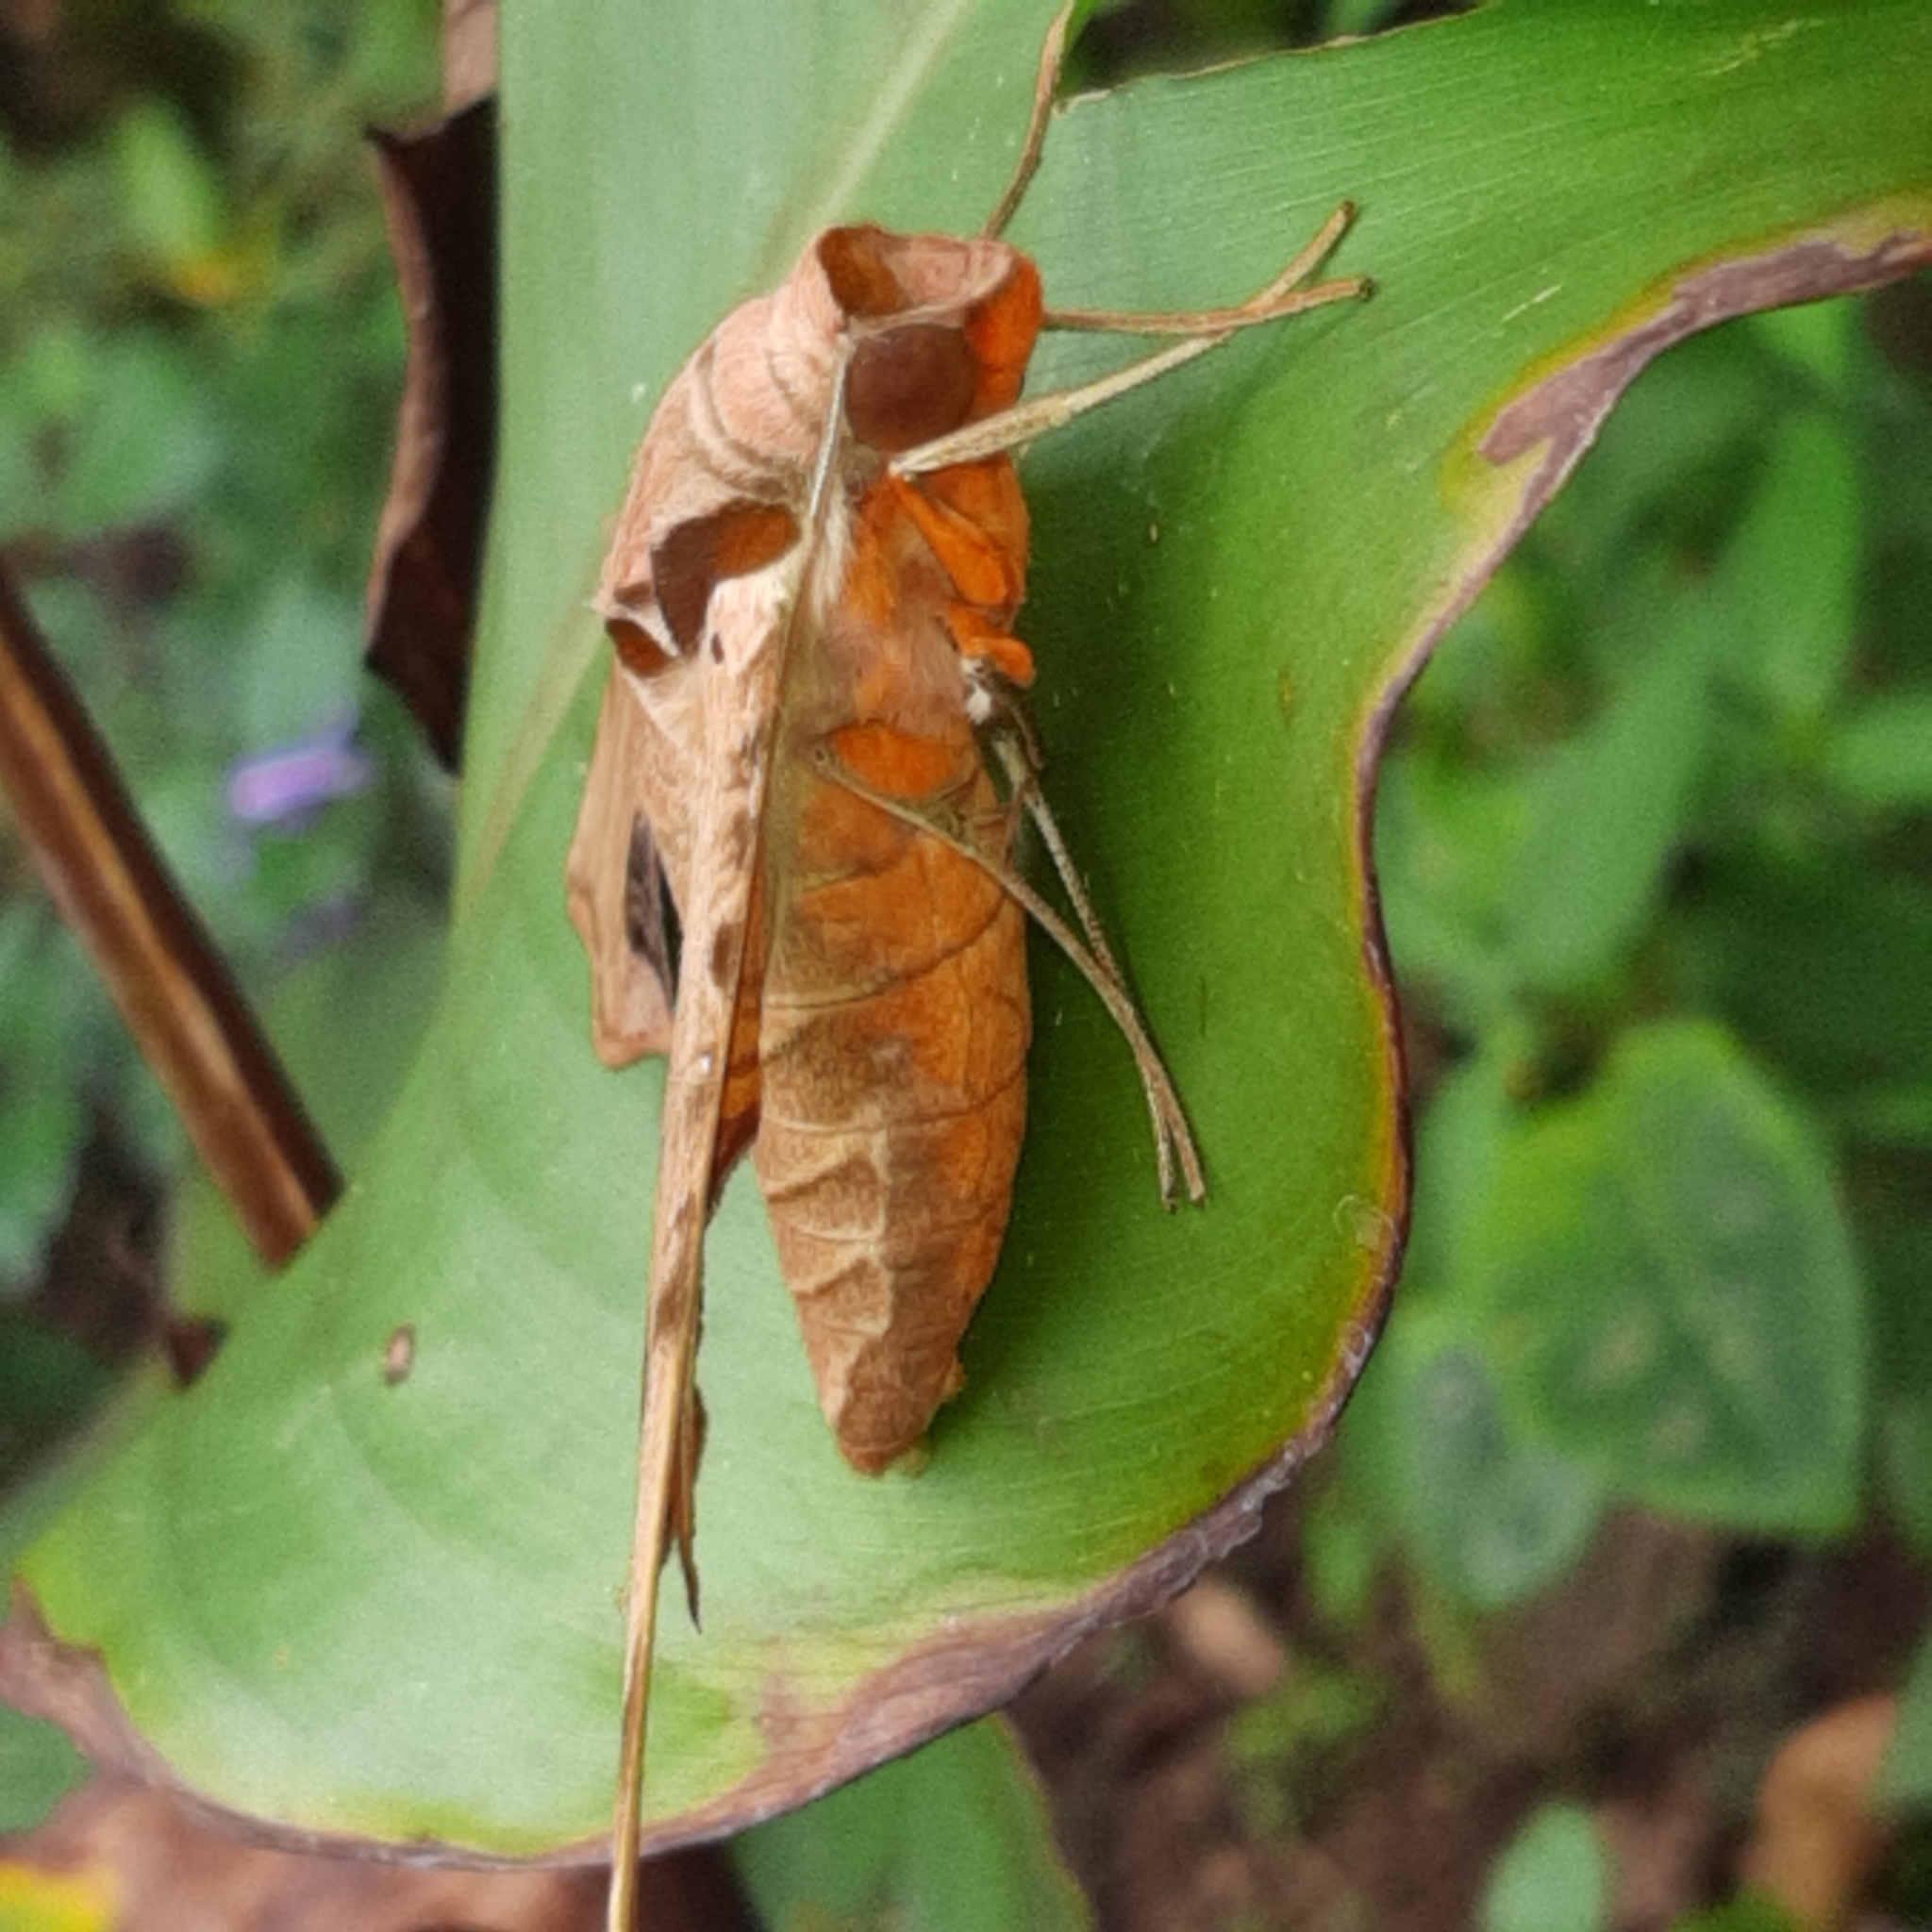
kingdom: Animalia
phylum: Arthropoda
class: Insecta
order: Lepidoptera
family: Sphingidae
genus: Protambulyx
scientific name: Protambulyx strigilis
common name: Streaked sphinx
